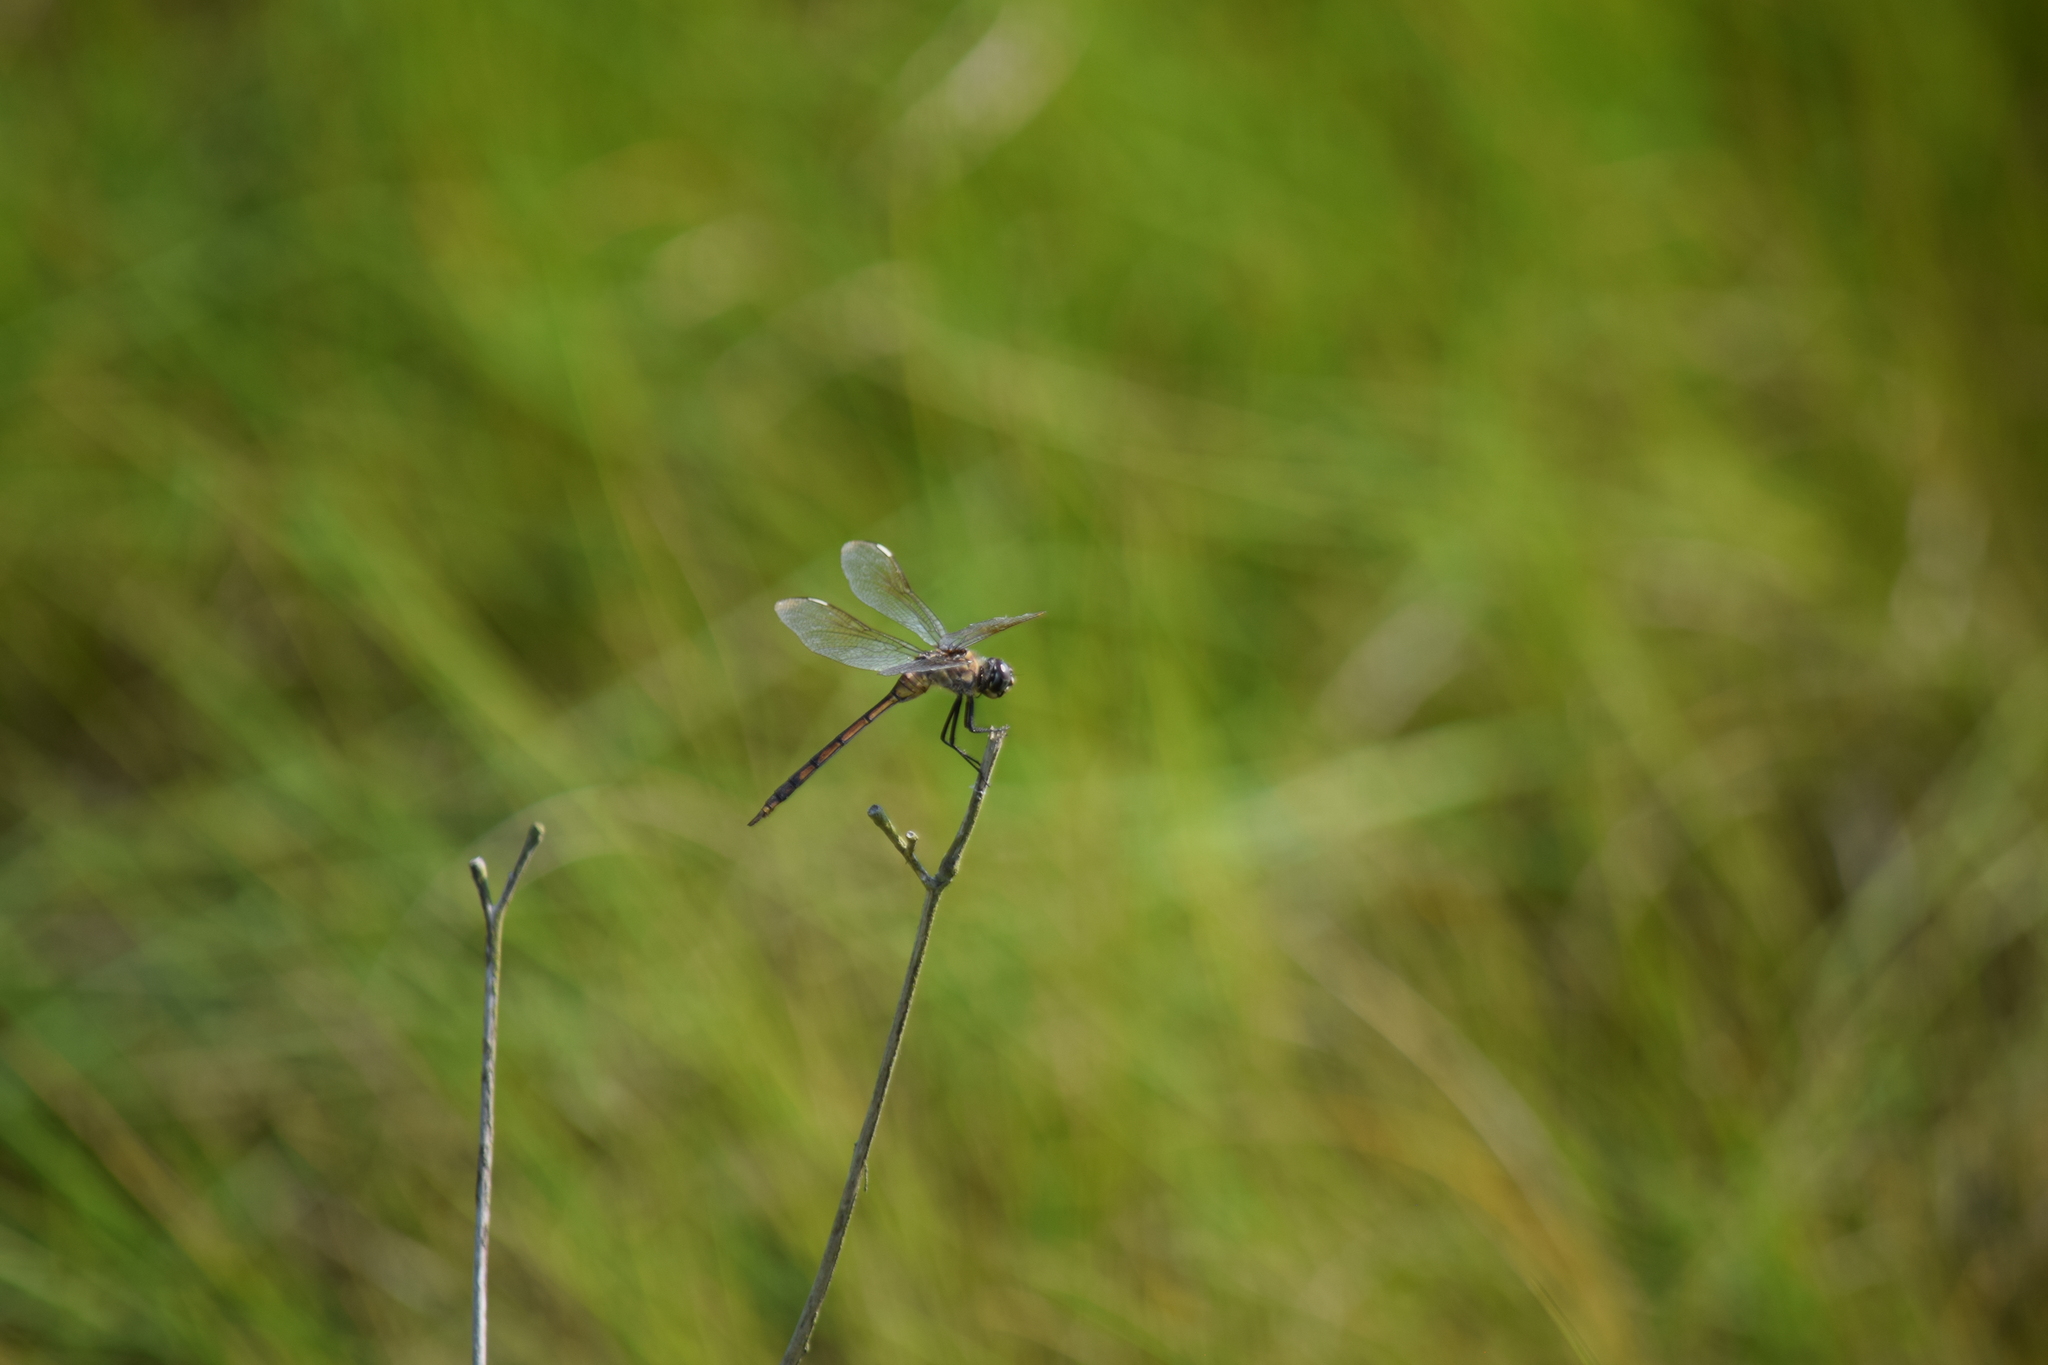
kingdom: Animalia
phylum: Arthropoda
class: Insecta
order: Odonata
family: Libellulidae
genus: Brachymesia
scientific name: Brachymesia gravida
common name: Four-spotted pennant
